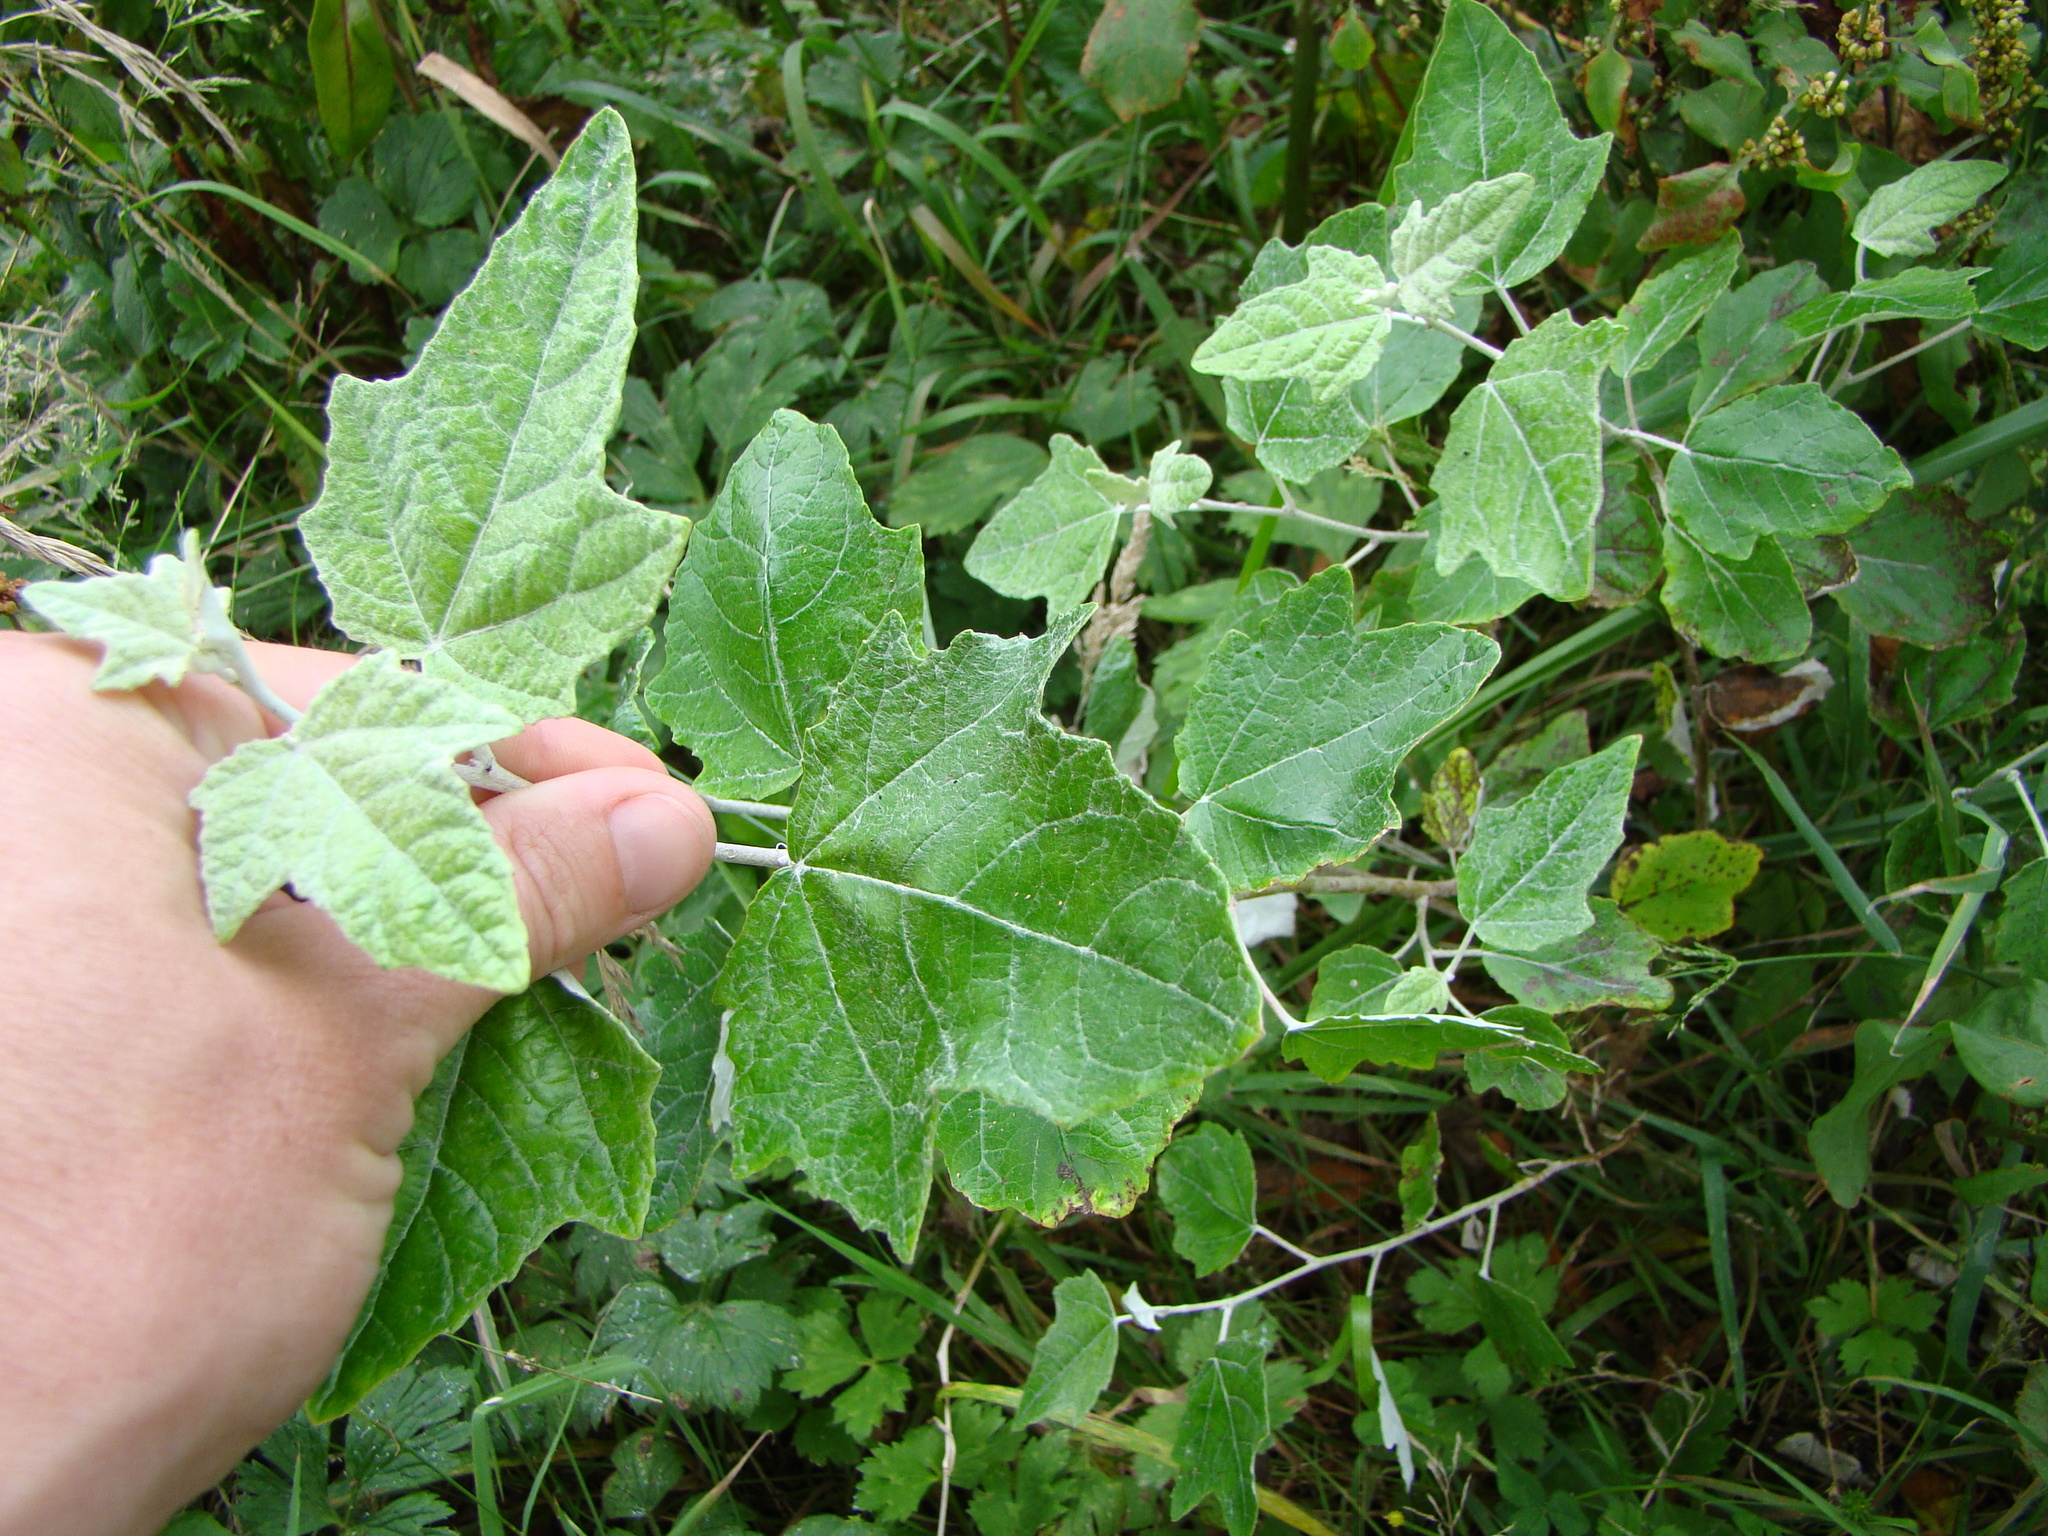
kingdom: Plantae
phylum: Tracheophyta
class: Magnoliopsida
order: Malpighiales
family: Salicaceae
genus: Populus
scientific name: Populus alba
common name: White poplar
